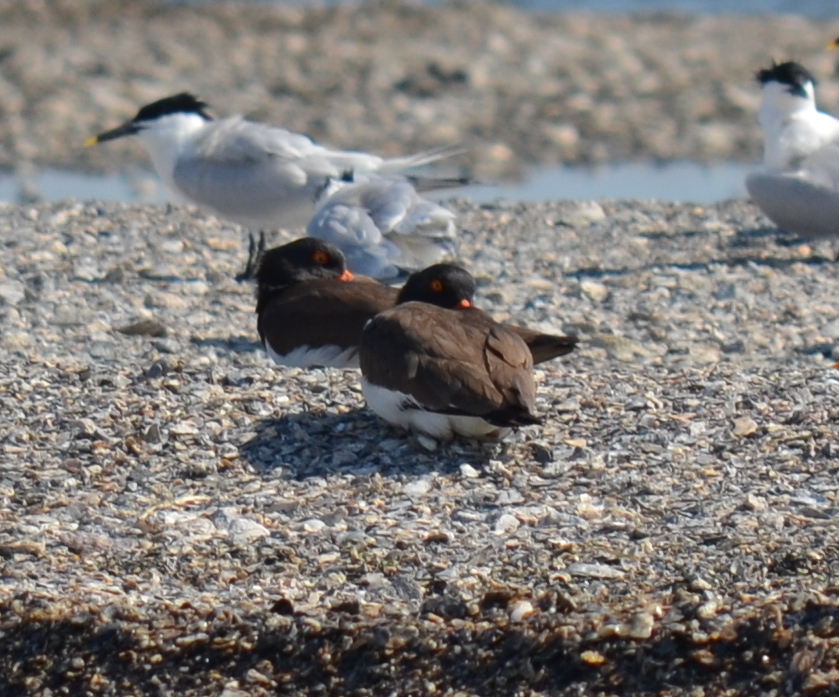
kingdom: Animalia
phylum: Chordata
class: Aves
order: Charadriiformes
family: Haematopodidae
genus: Haematopus
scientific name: Haematopus palliatus
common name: American oystercatcher
